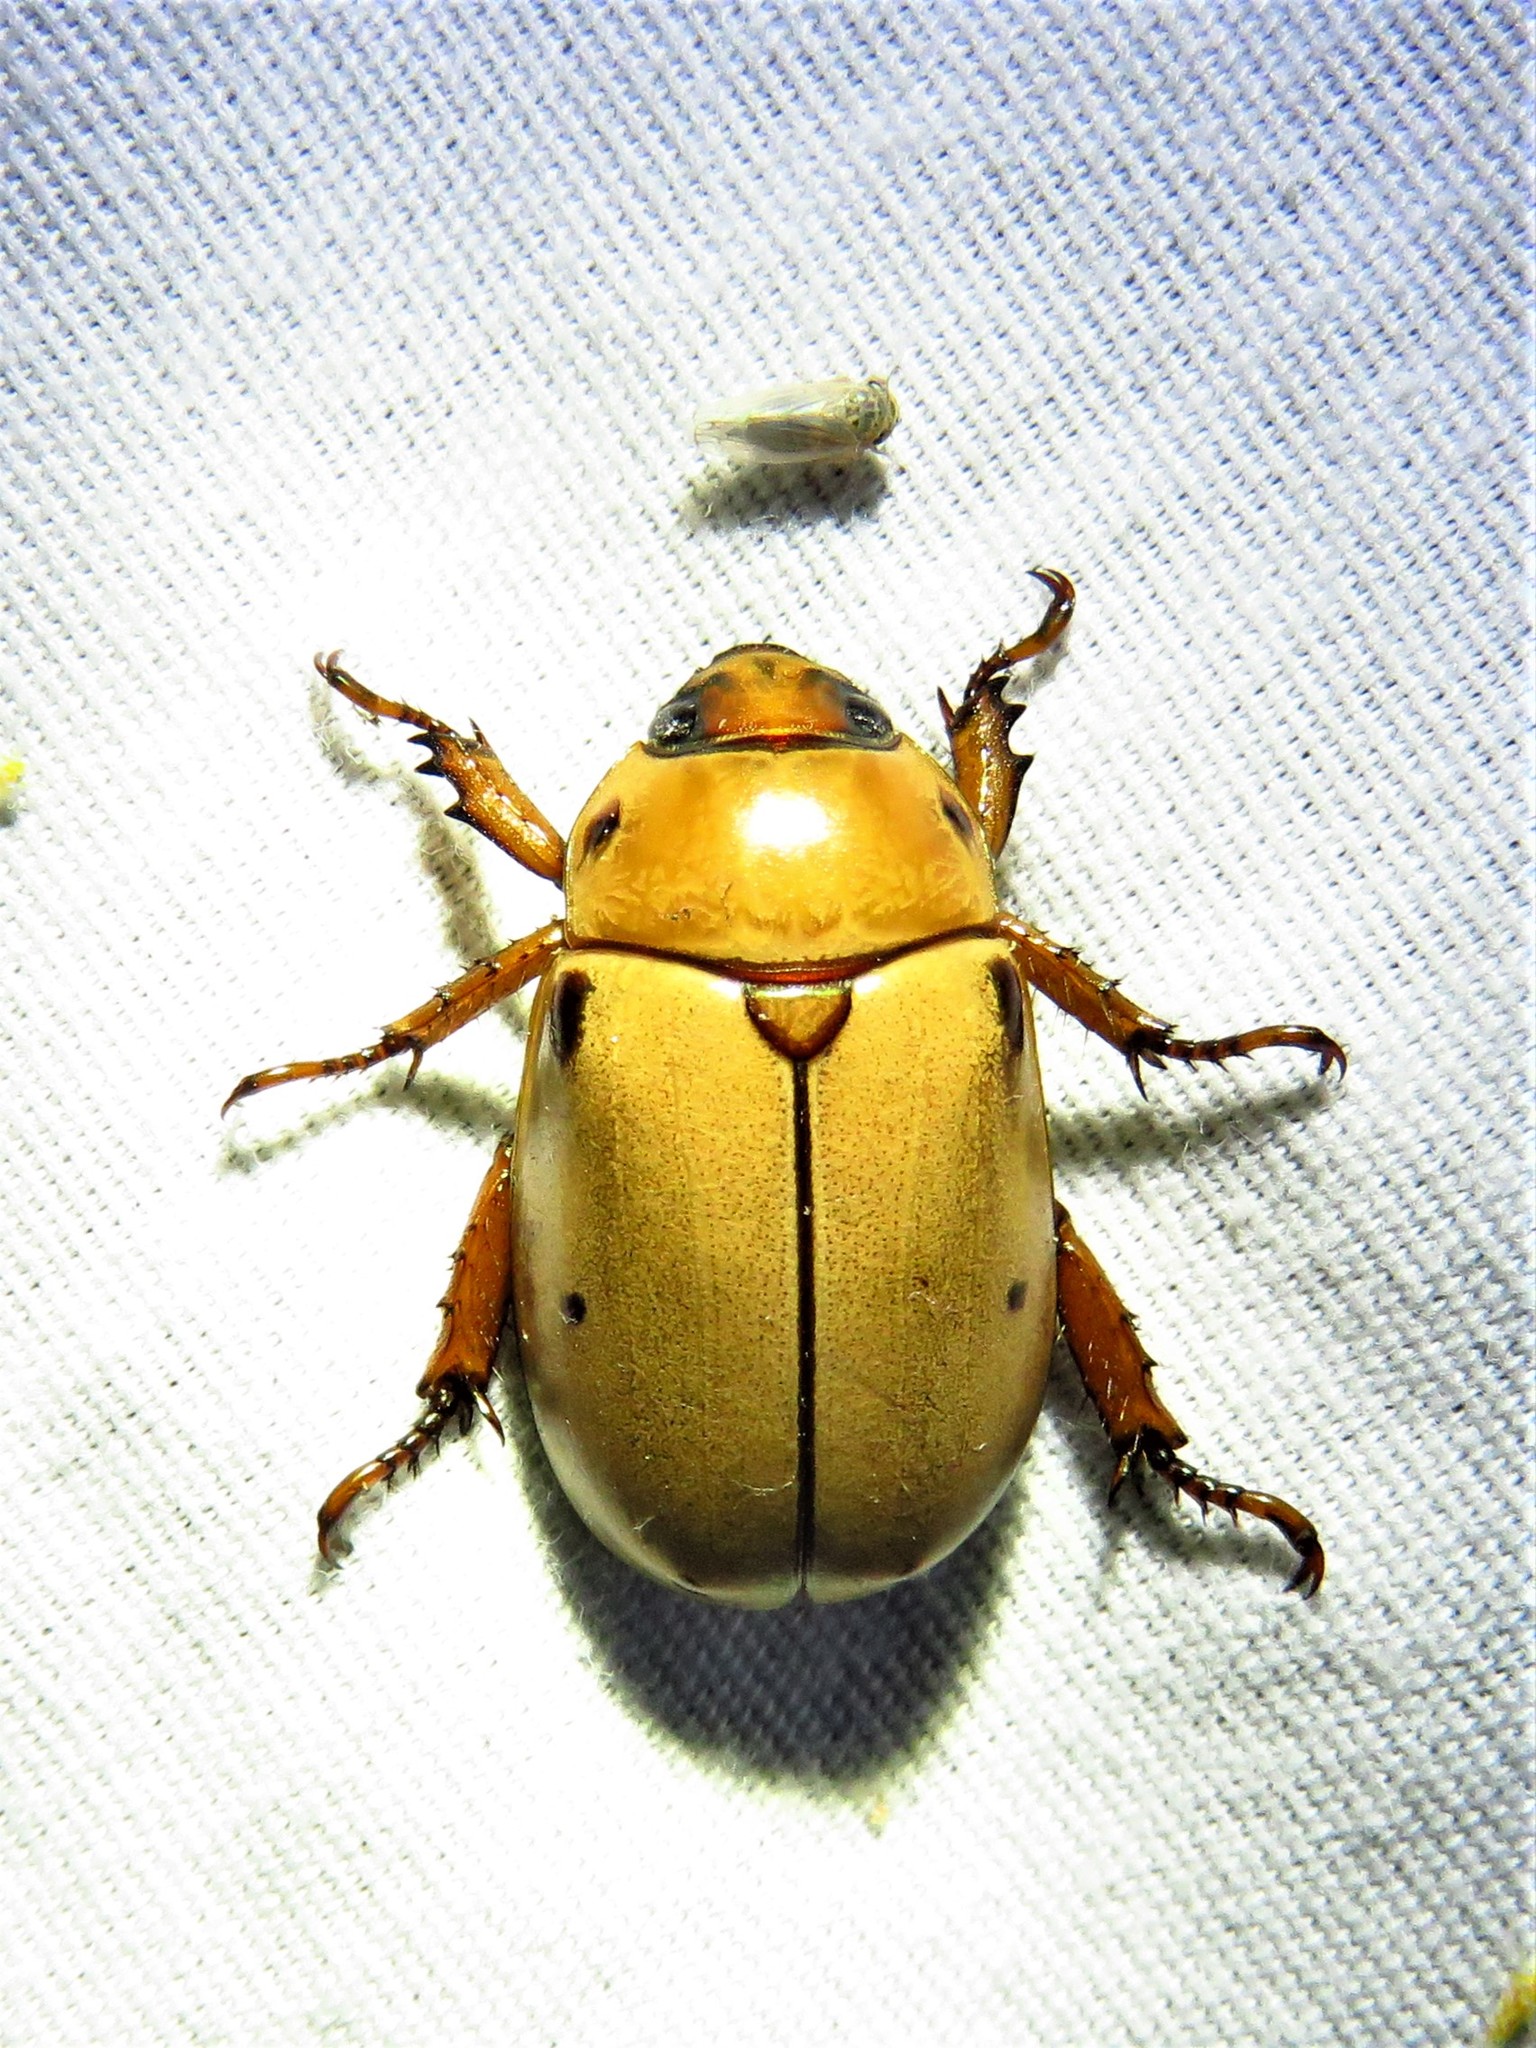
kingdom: Animalia
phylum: Arthropoda
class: Insecta
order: Coleoptera
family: Scarabaeidae
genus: Pelidnota
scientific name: Pelidnota punctata
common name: Grapevine beetle
